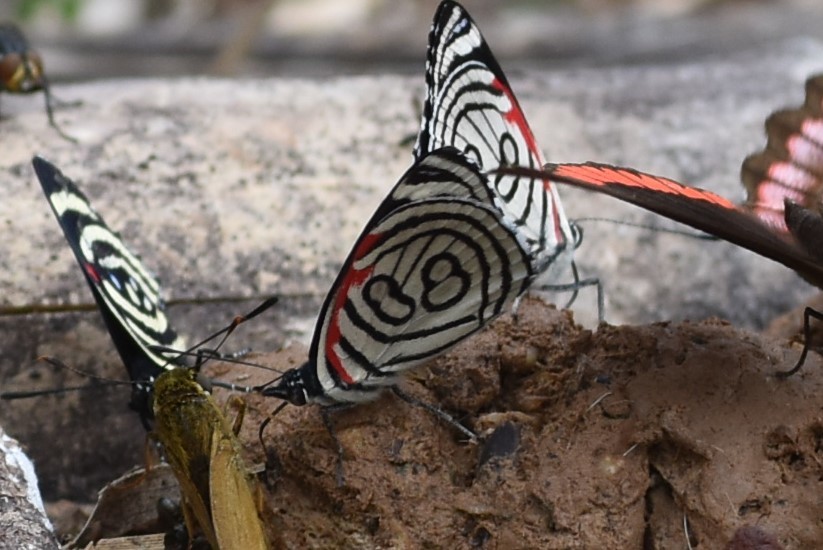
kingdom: Animalia
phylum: Arthropoda
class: Insecta
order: Lepidoptera
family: Nymphalidae
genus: Diaethria
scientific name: Diaethria candrena
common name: Number eighty
